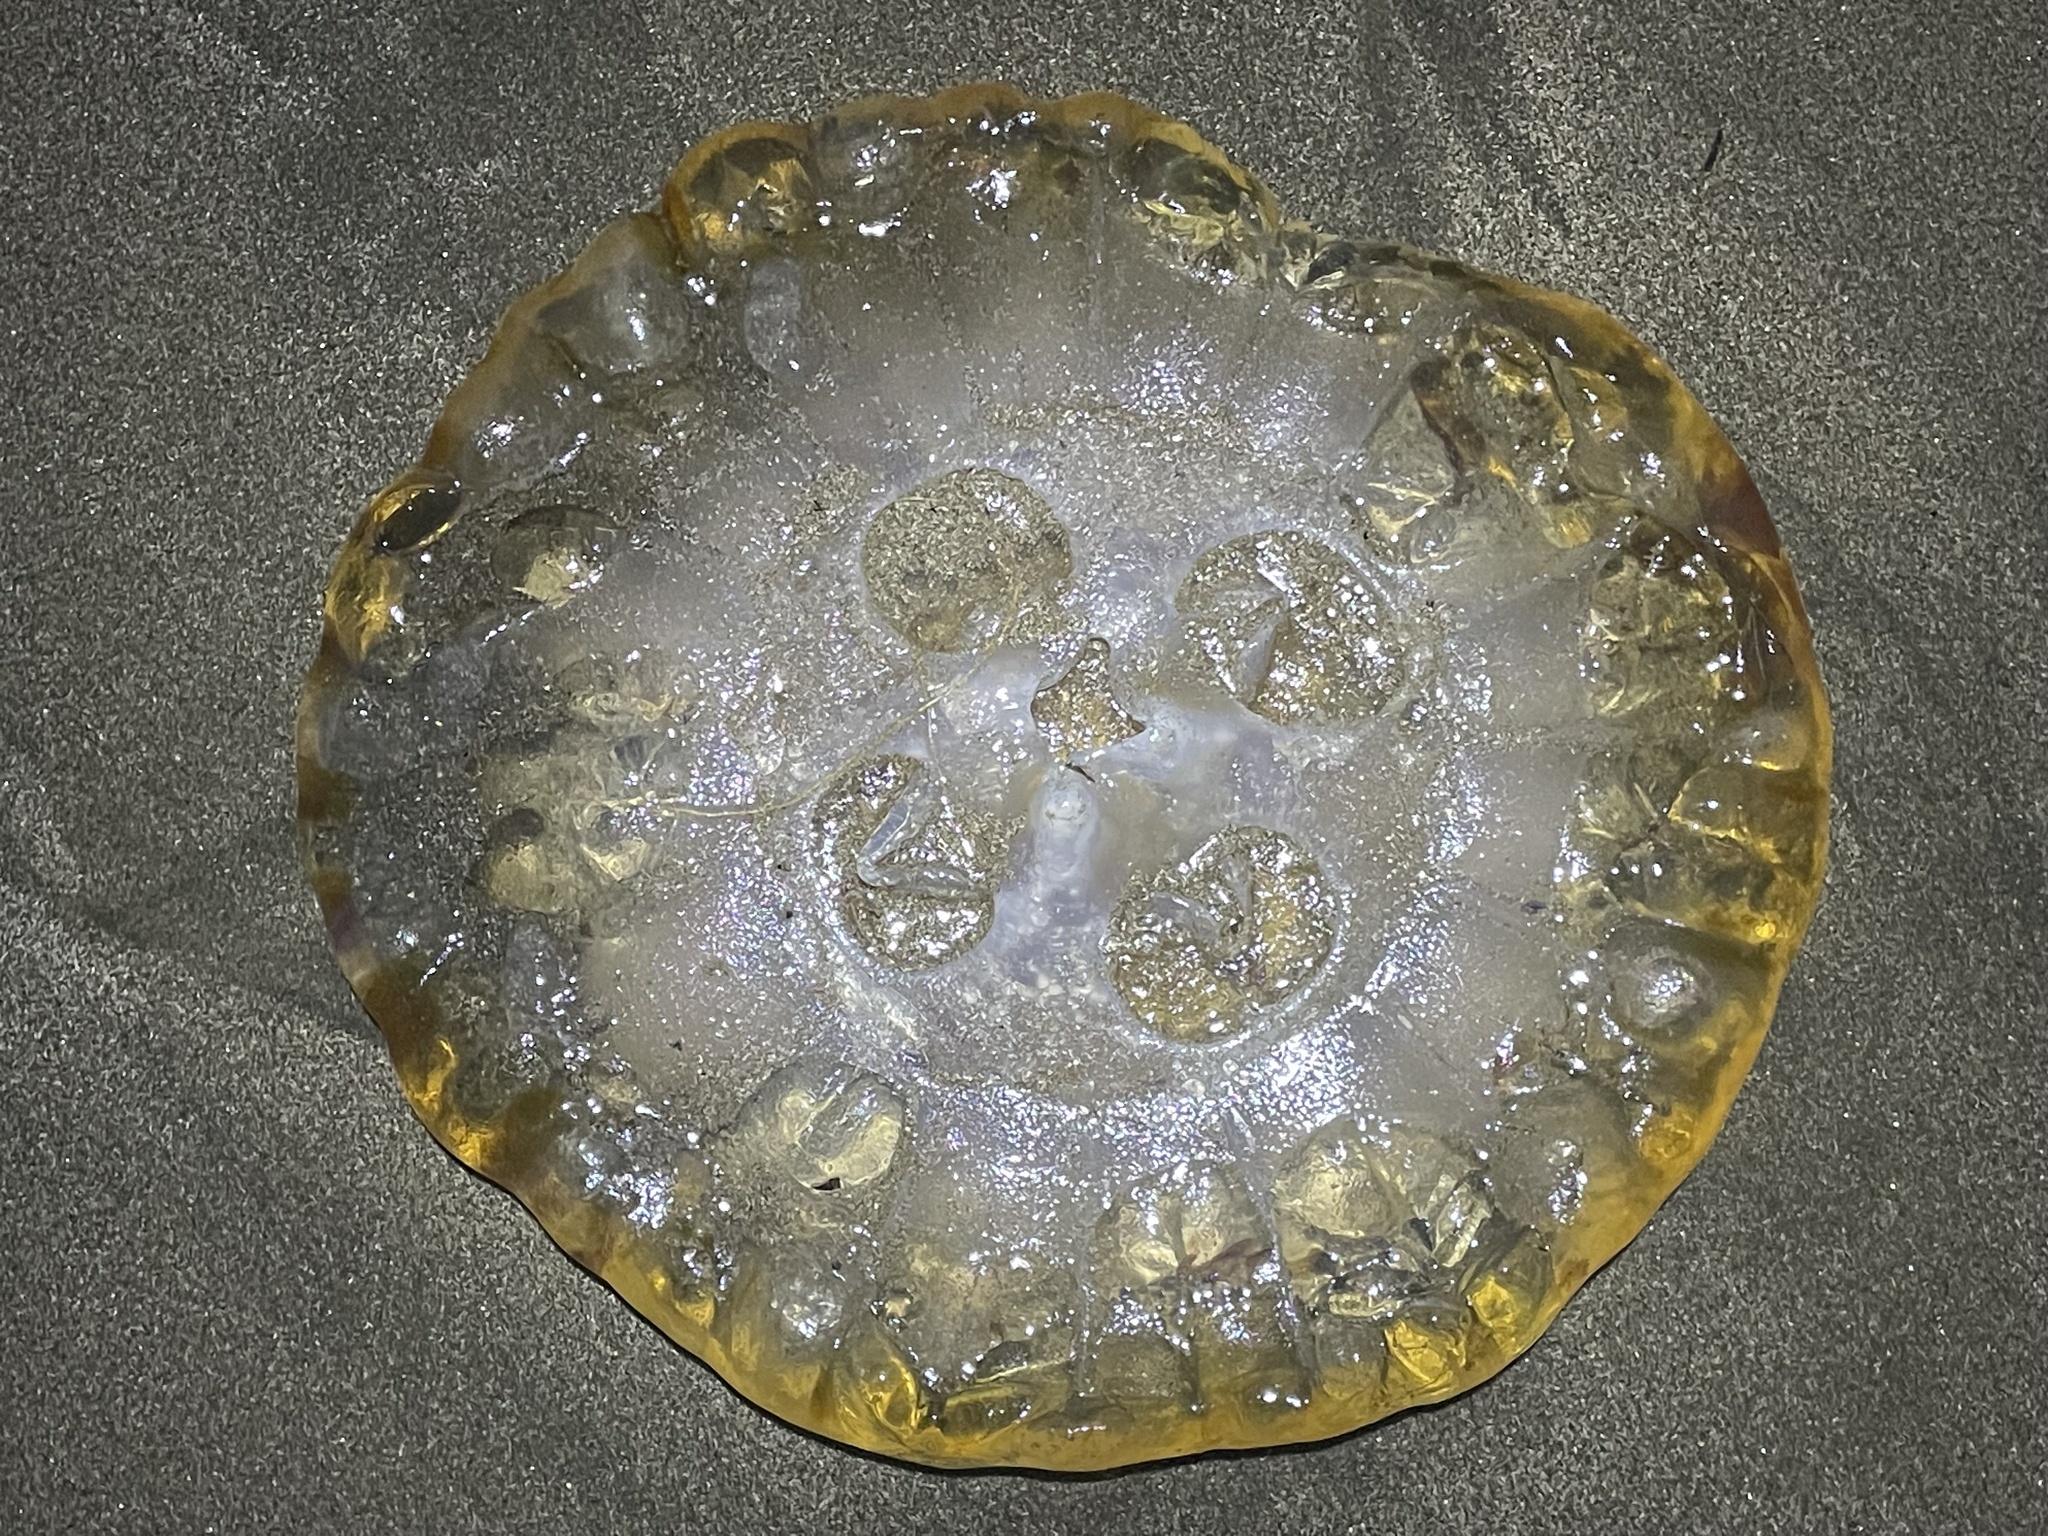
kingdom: Animalia
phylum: Cnidaria
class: Scyphozoa
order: Semaeostomeae
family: Pelagiidae
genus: Chrysaora
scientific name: Chrysaora fuscescens
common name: Sea nettle
